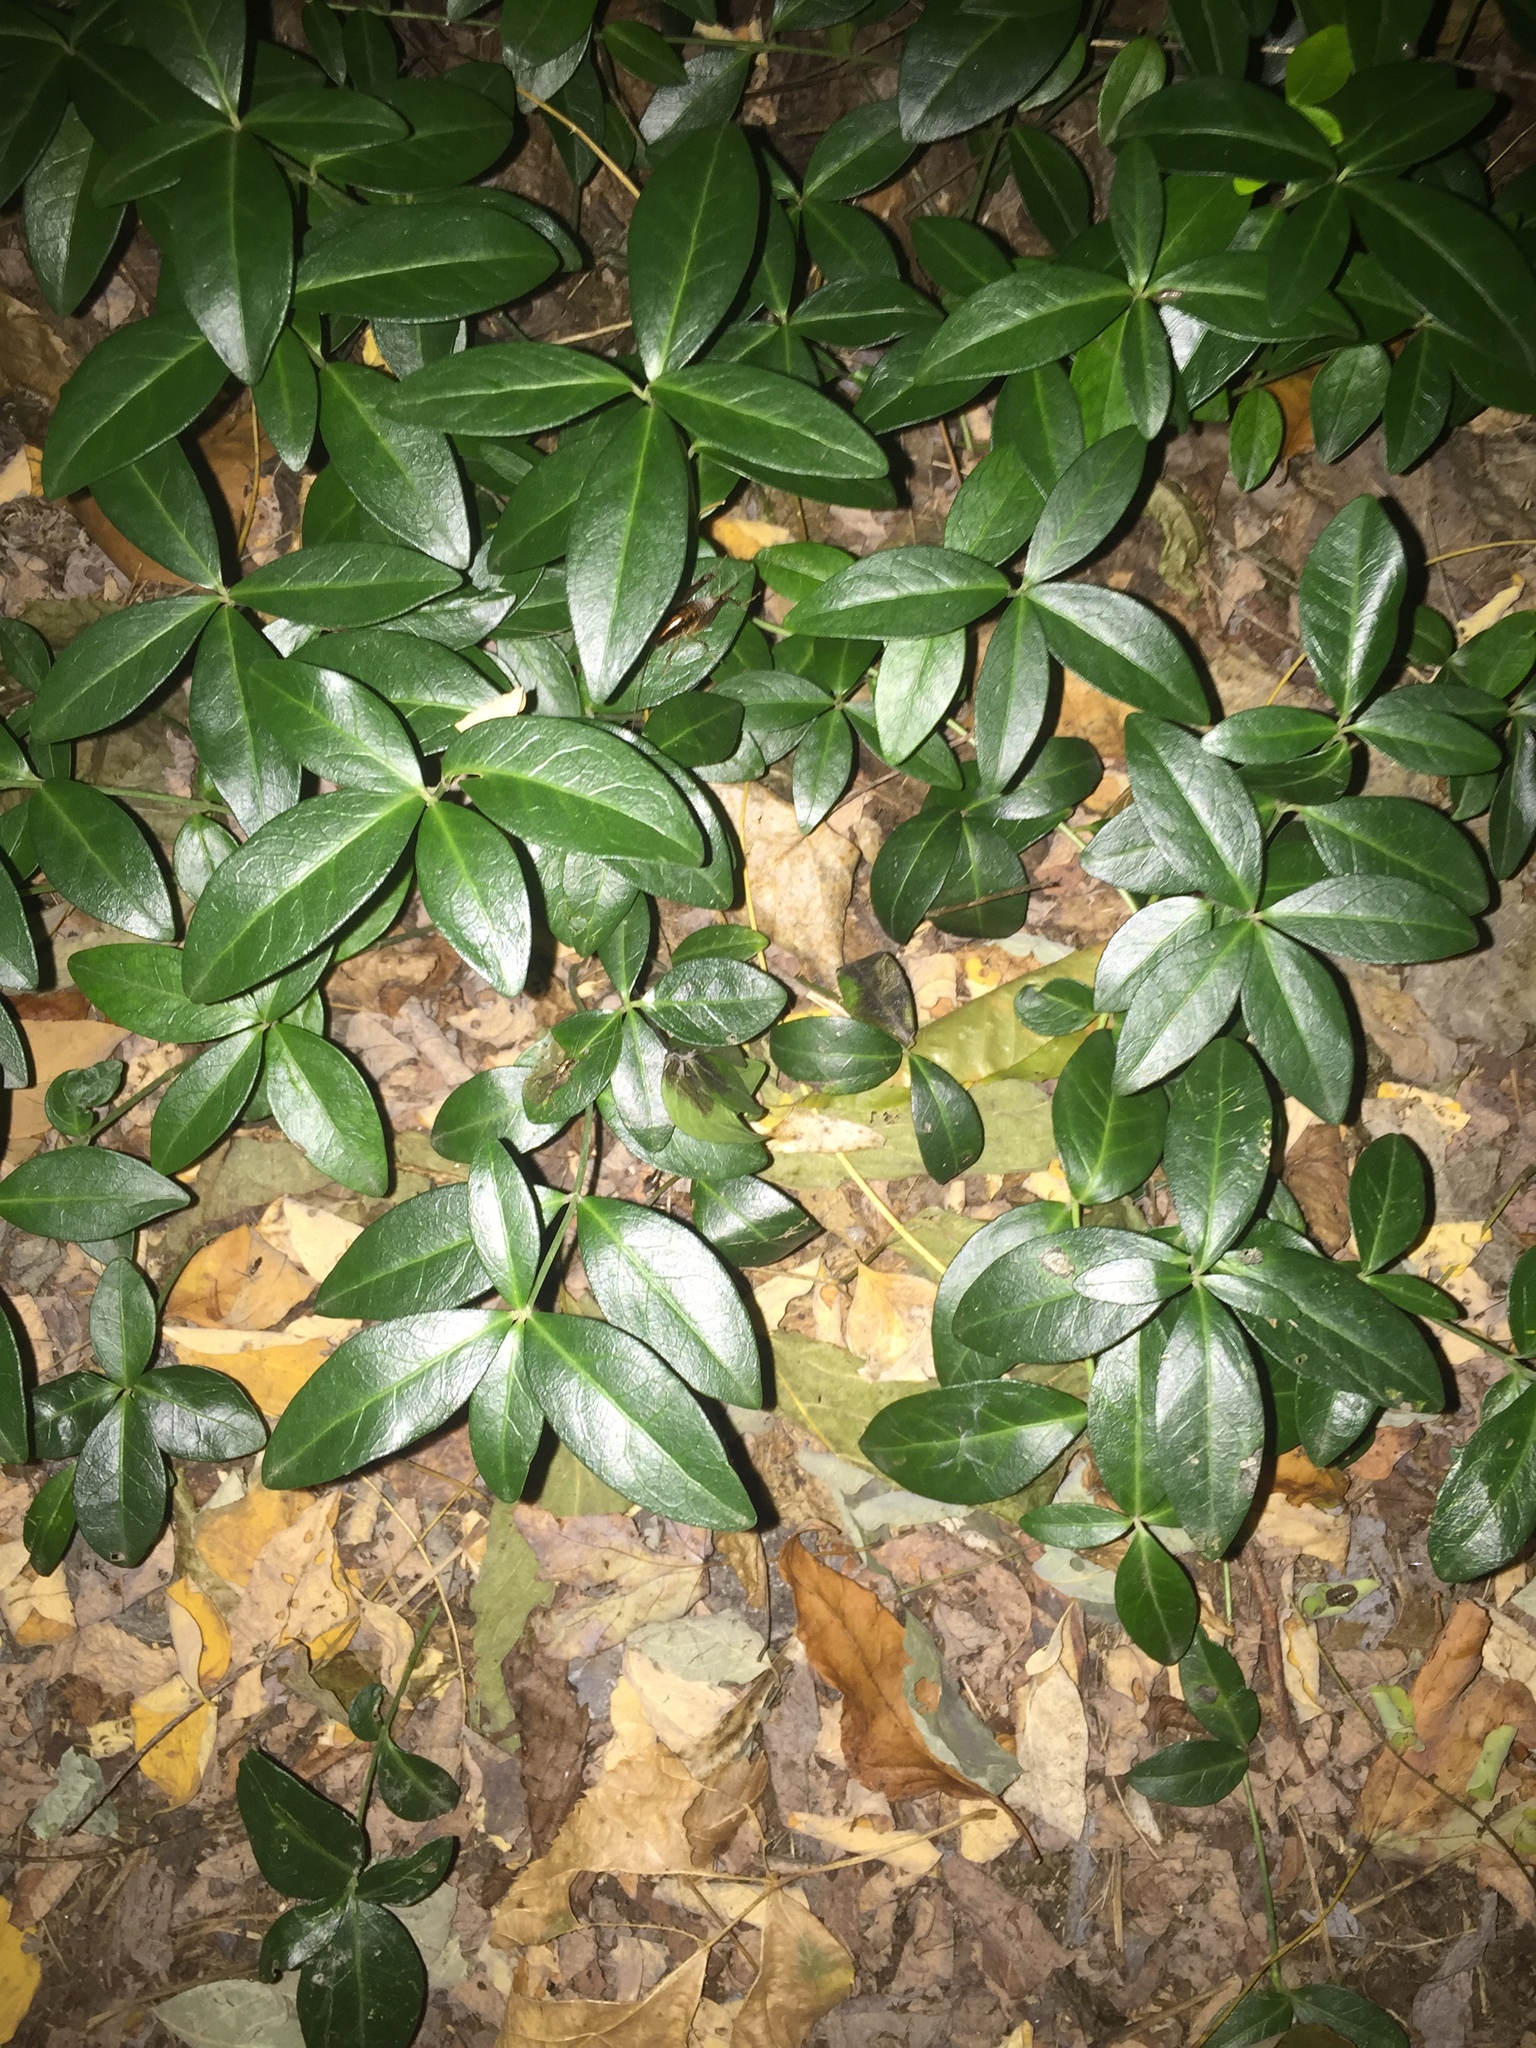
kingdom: Plantae
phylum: Tracheophyta
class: Magnoliopsida
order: Gentianales
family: Apocynaceae
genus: Vinca
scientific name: Vinca minor
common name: Lesser periwinkle
